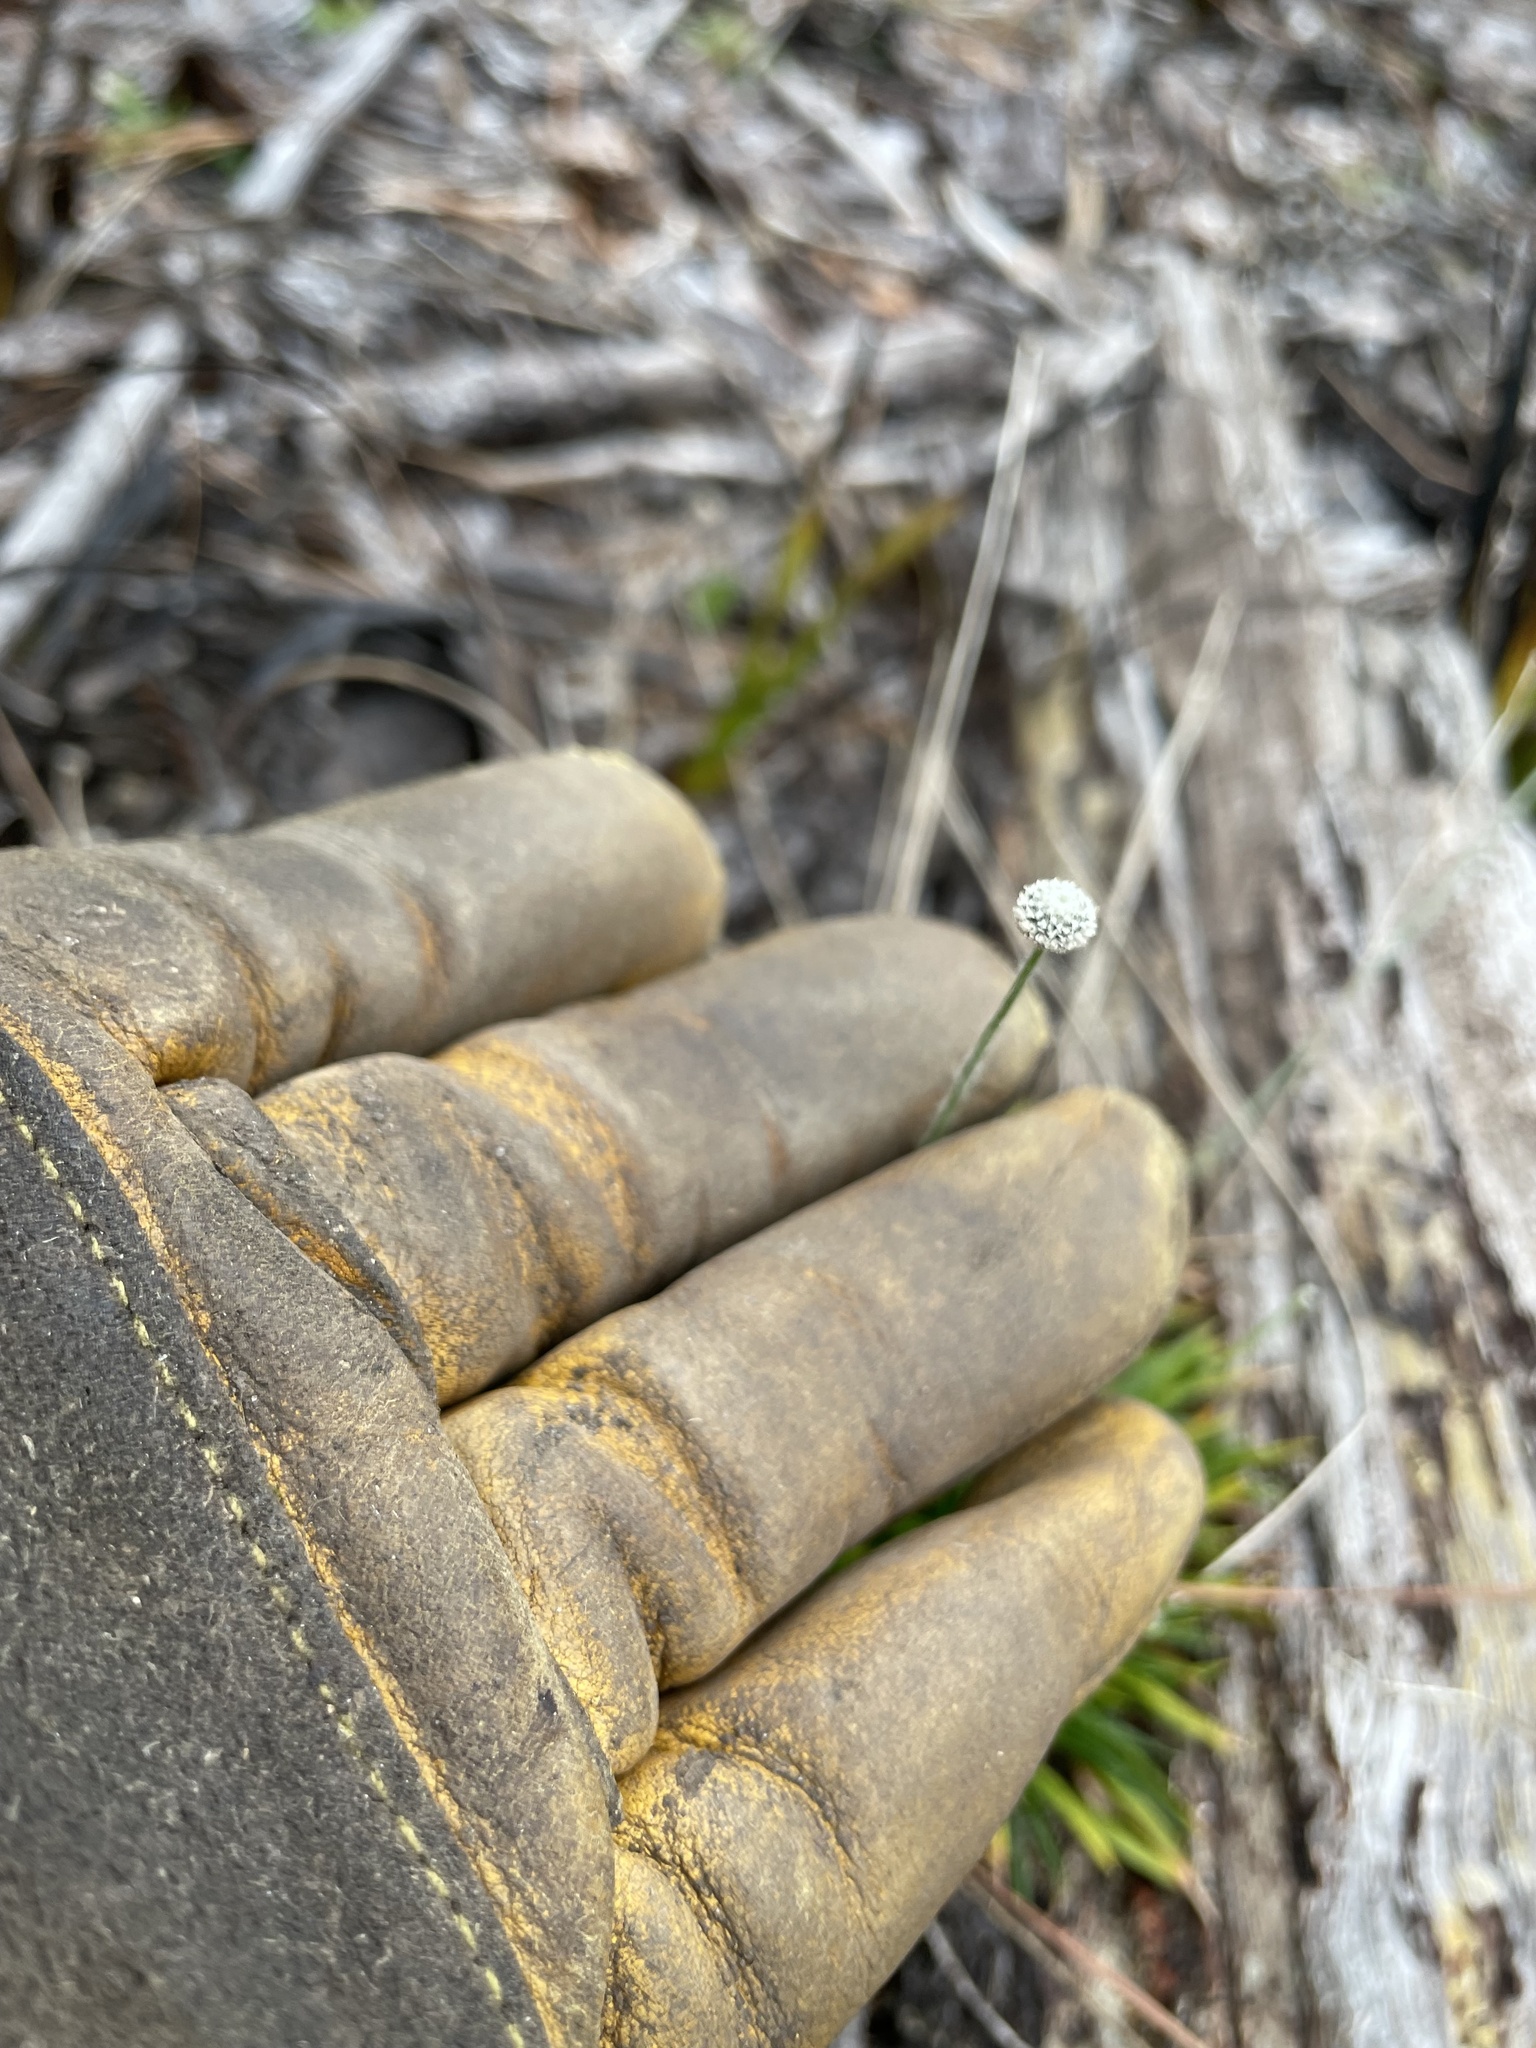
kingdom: Plantae
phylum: Tracheophyta
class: Liliopsida
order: Poales
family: Eriocaulaceae
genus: Paepalanthus
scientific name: Paepalanthus anceps
